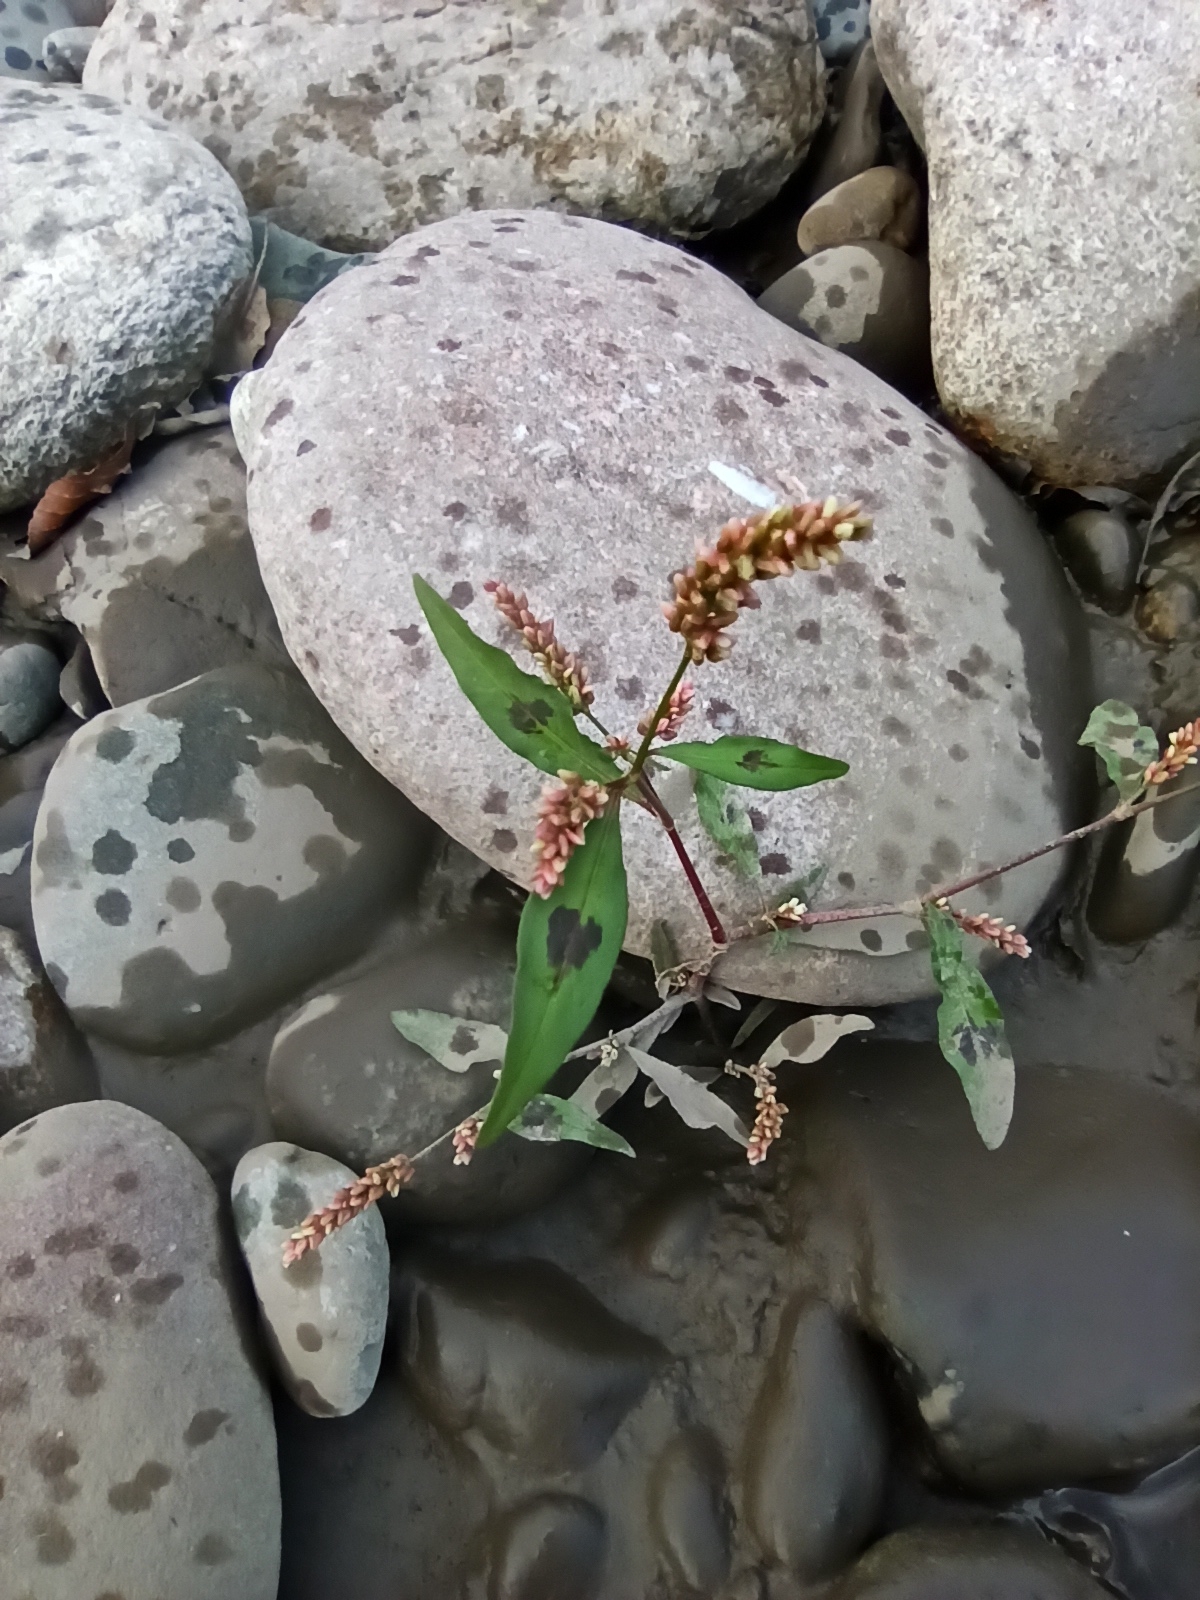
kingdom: Plantae
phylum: Tracheophyta
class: Magnoliopsida
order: Caryophyllales
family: Polygonaceae
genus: Persicaria
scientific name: Persicaria maculosa
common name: Redshank
